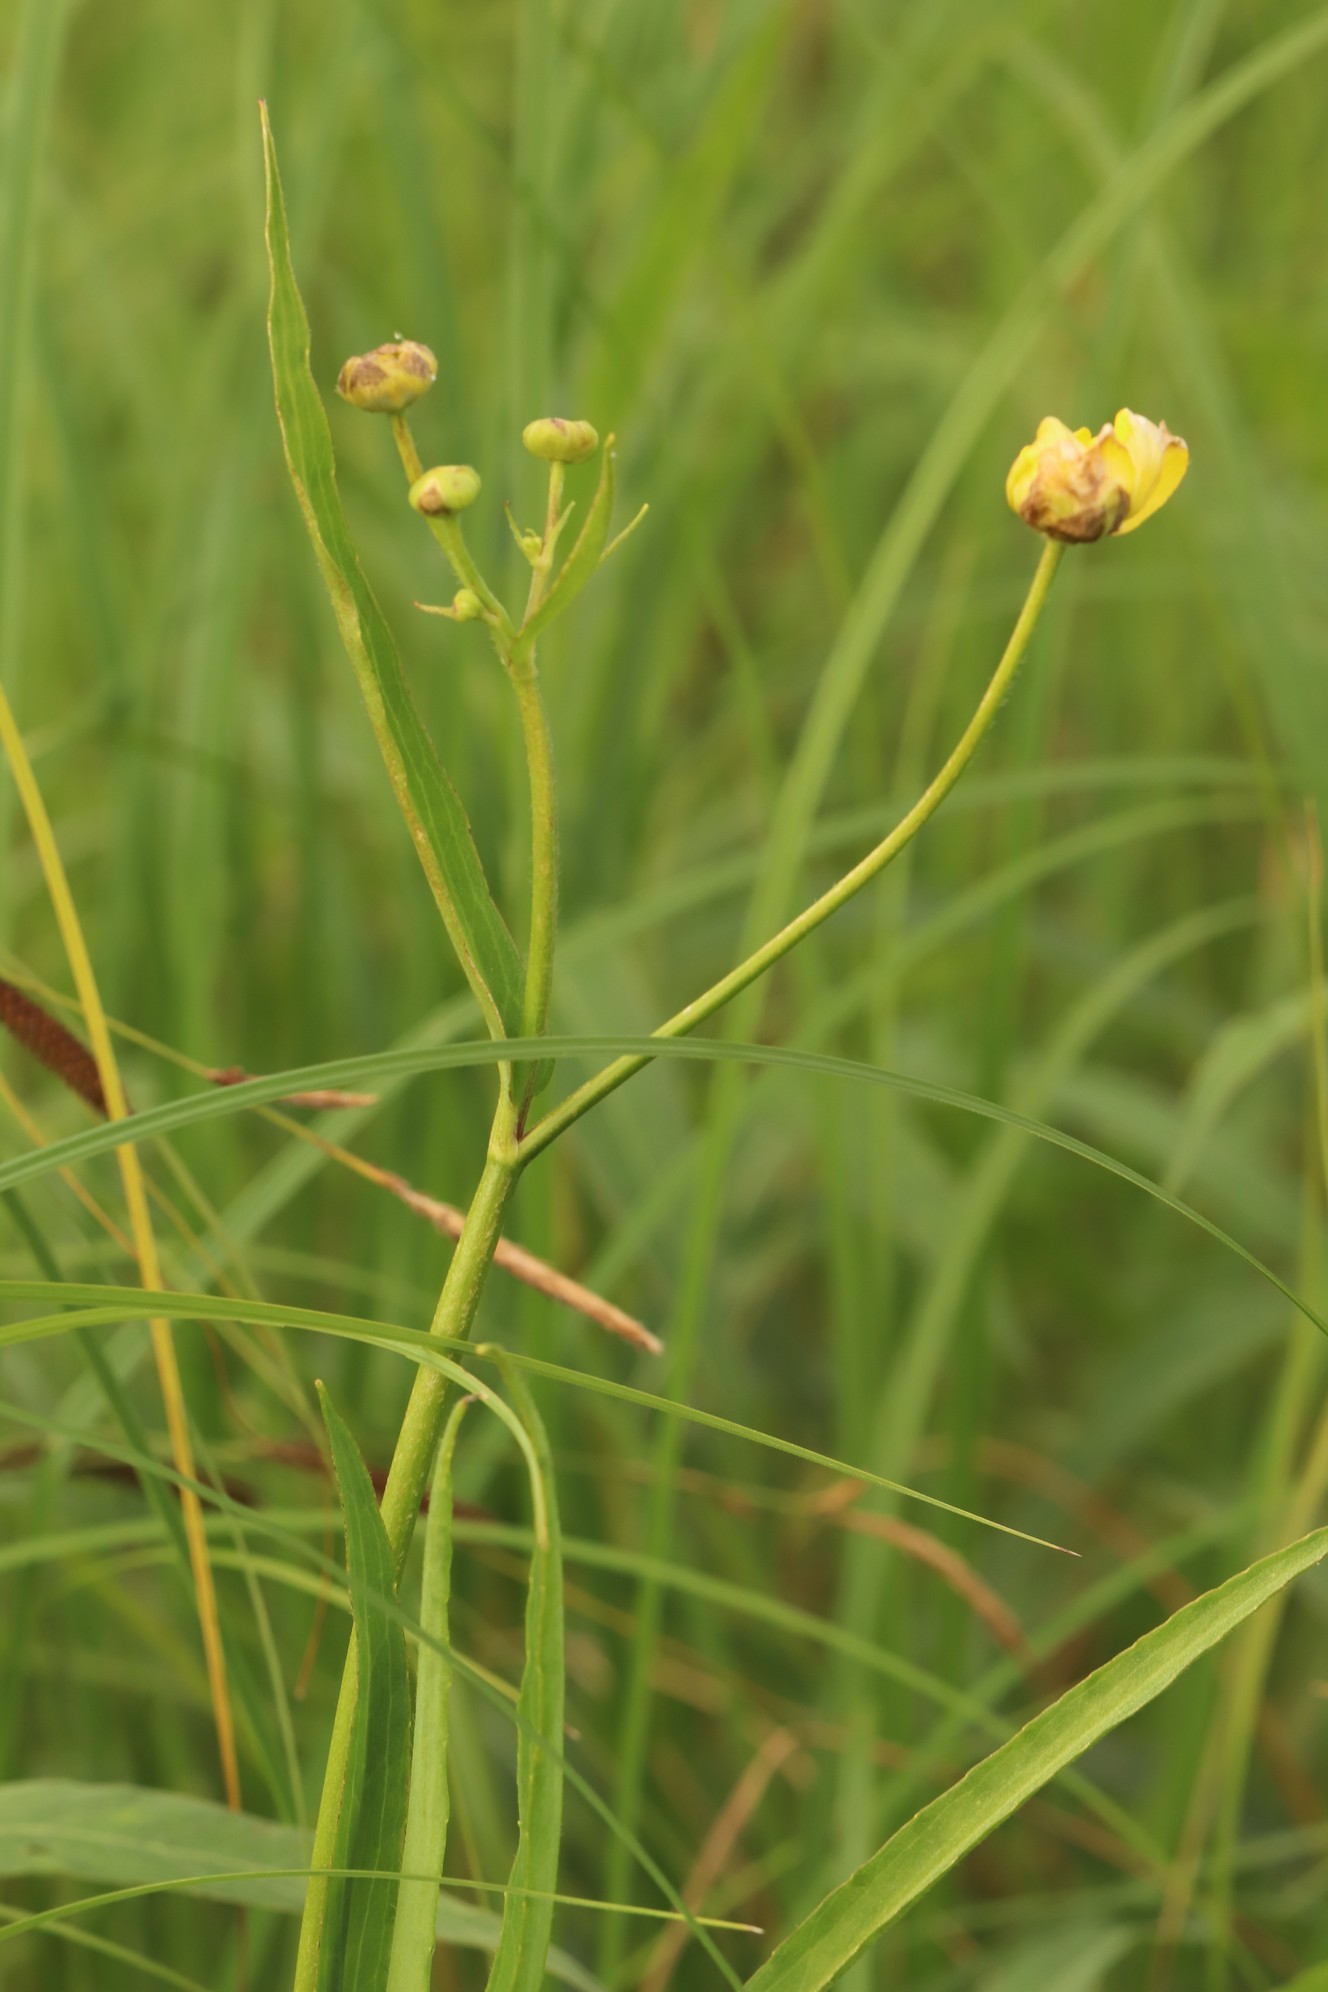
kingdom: Plantae
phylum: Tracheophyta
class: Magnoliopsida
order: Ranunculales
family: Ranunculaceae
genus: Ranunculus
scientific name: Ranunculus lingua
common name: Greater spearwort
